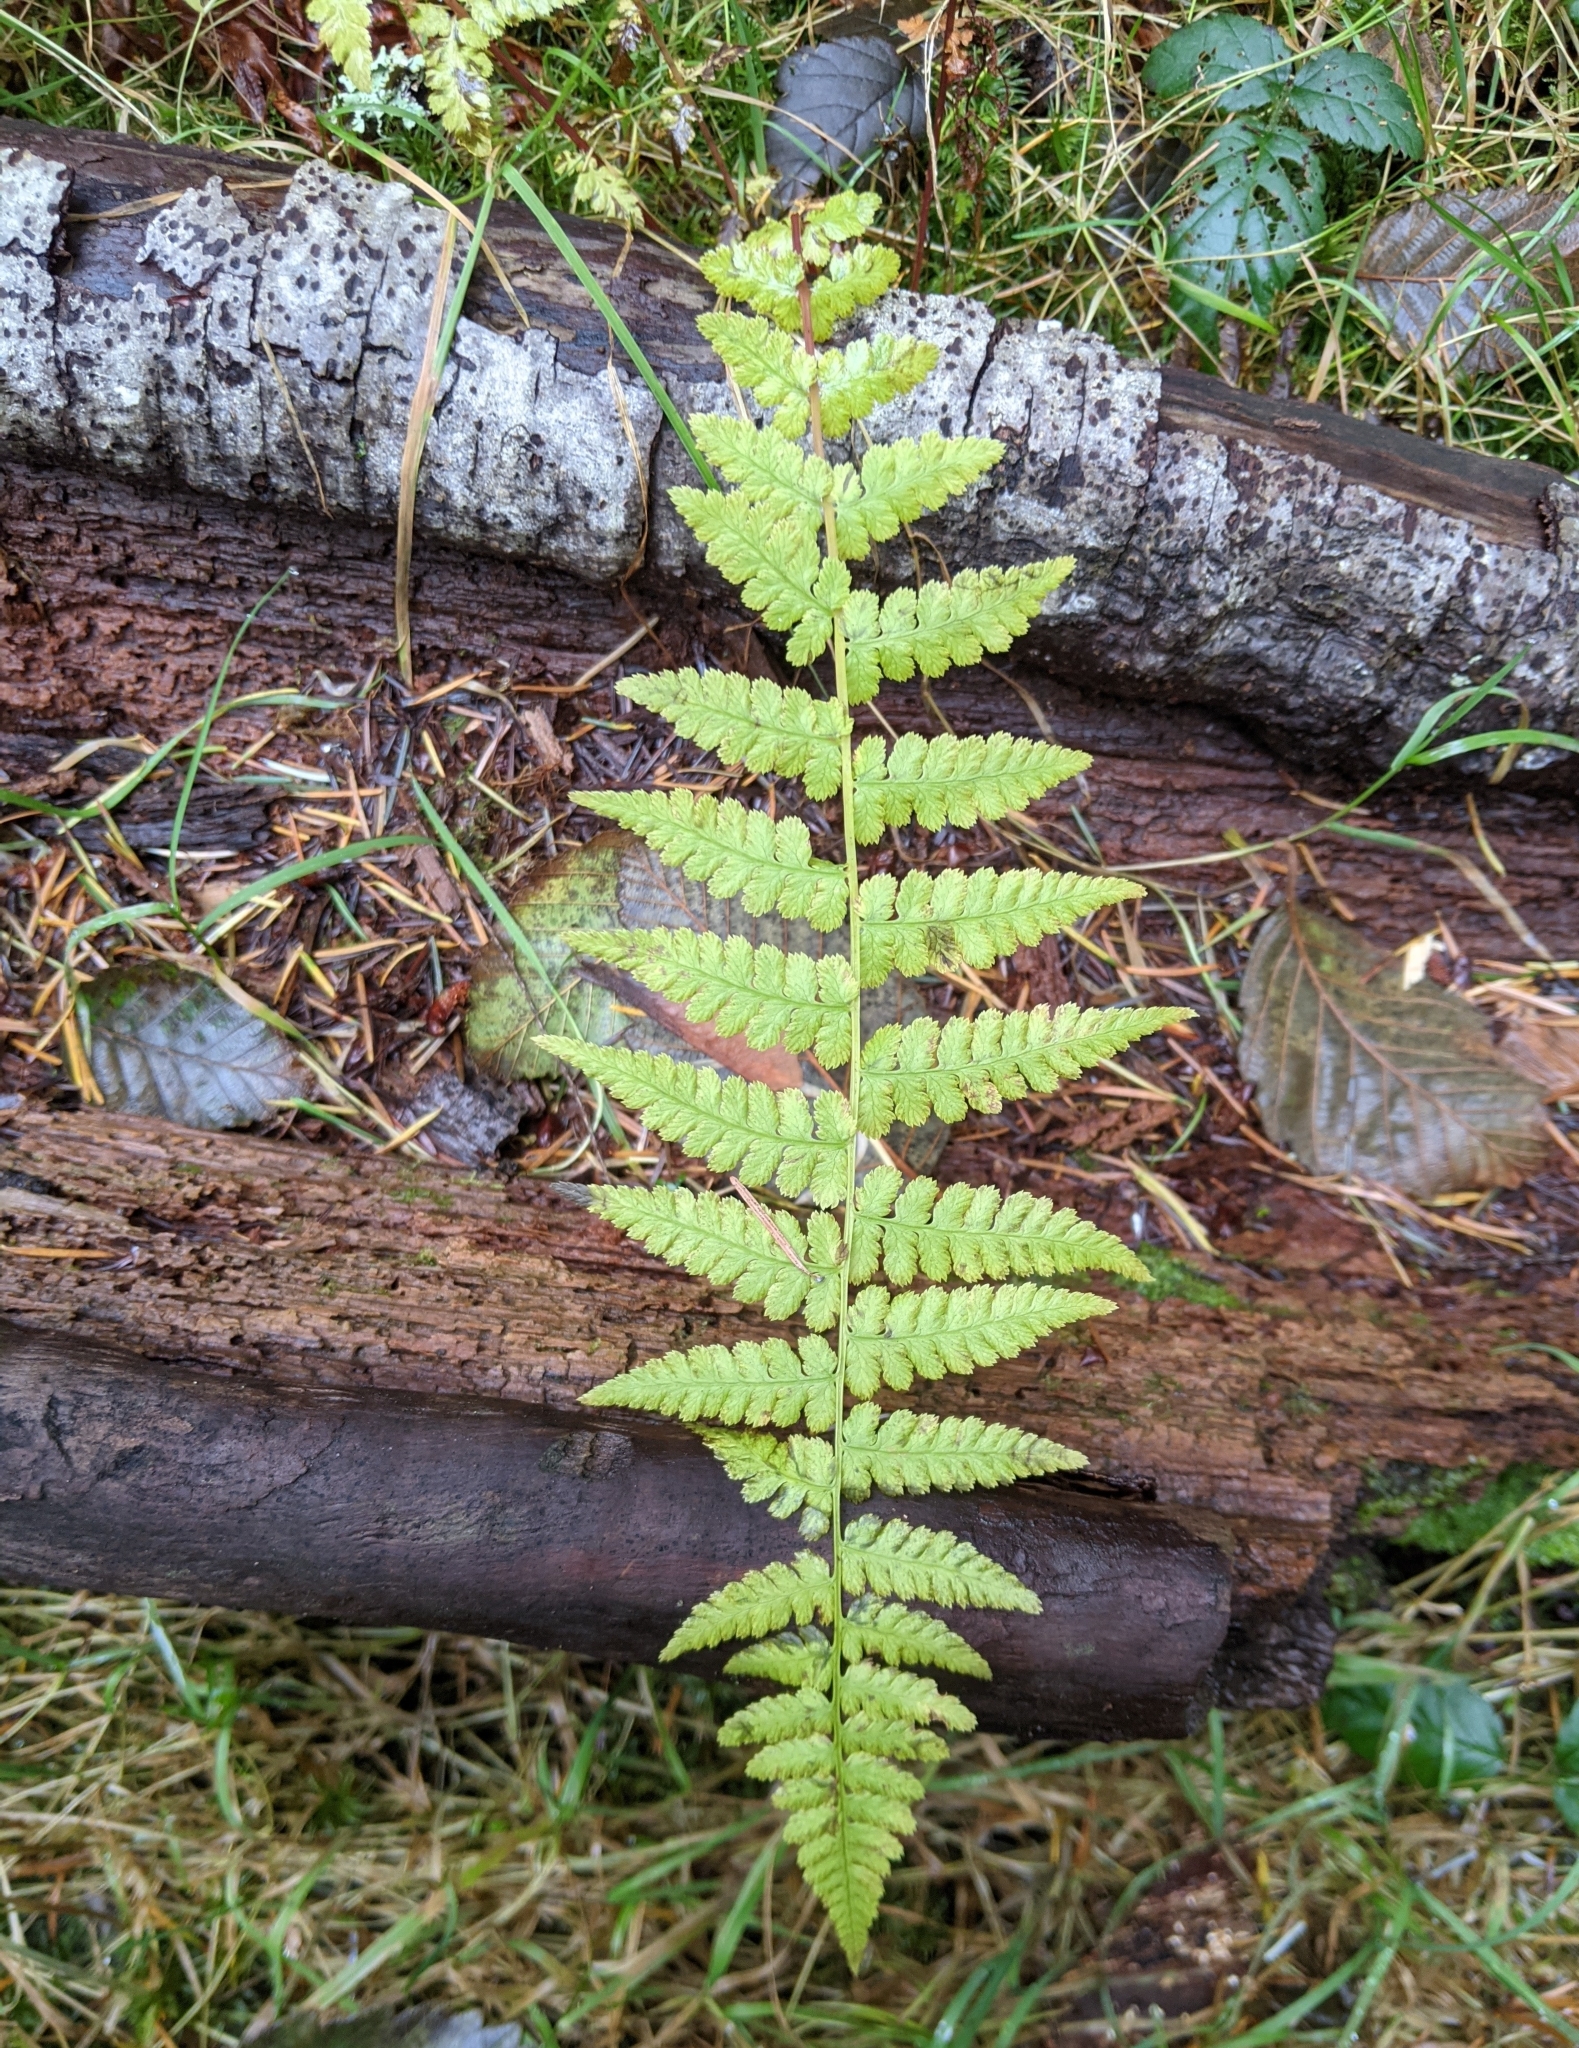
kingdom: Plantae
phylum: Tracheophyta
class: Polypodiopsida
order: Polypodiales
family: Athyriaceae
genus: Athyrium
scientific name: Athyrium filix-femina
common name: Lady fern
